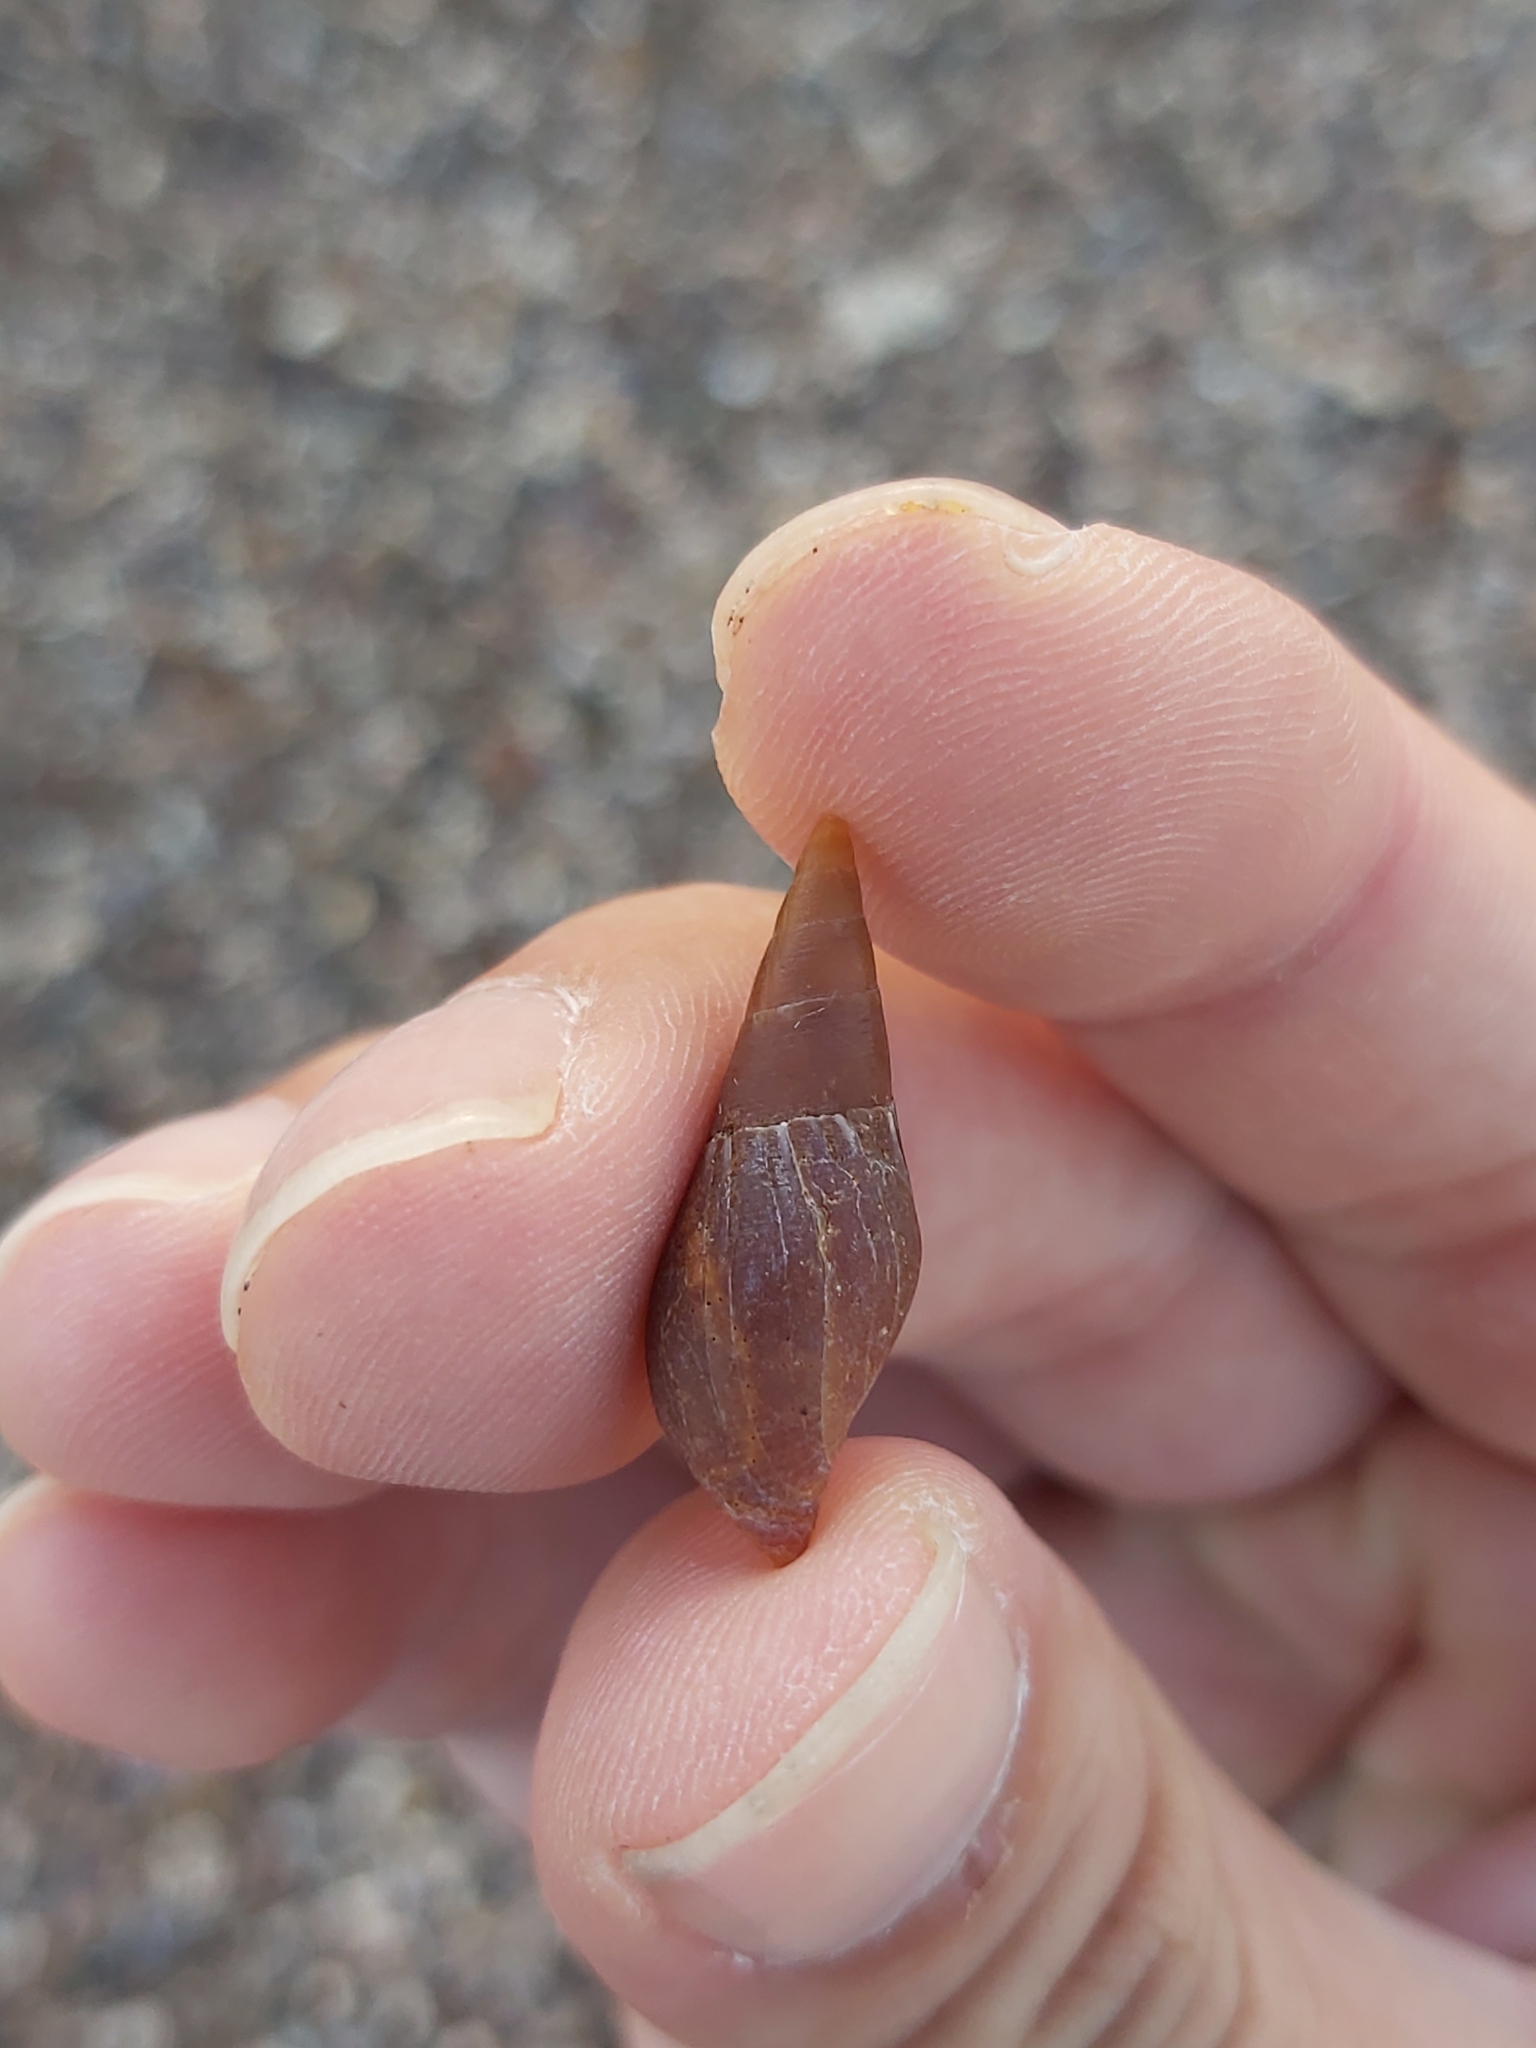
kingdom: Animalia
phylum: Mollusca
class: Gastropoda
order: Neogastropoda
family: Mitridae
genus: Isara
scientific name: Isara carbonaria
